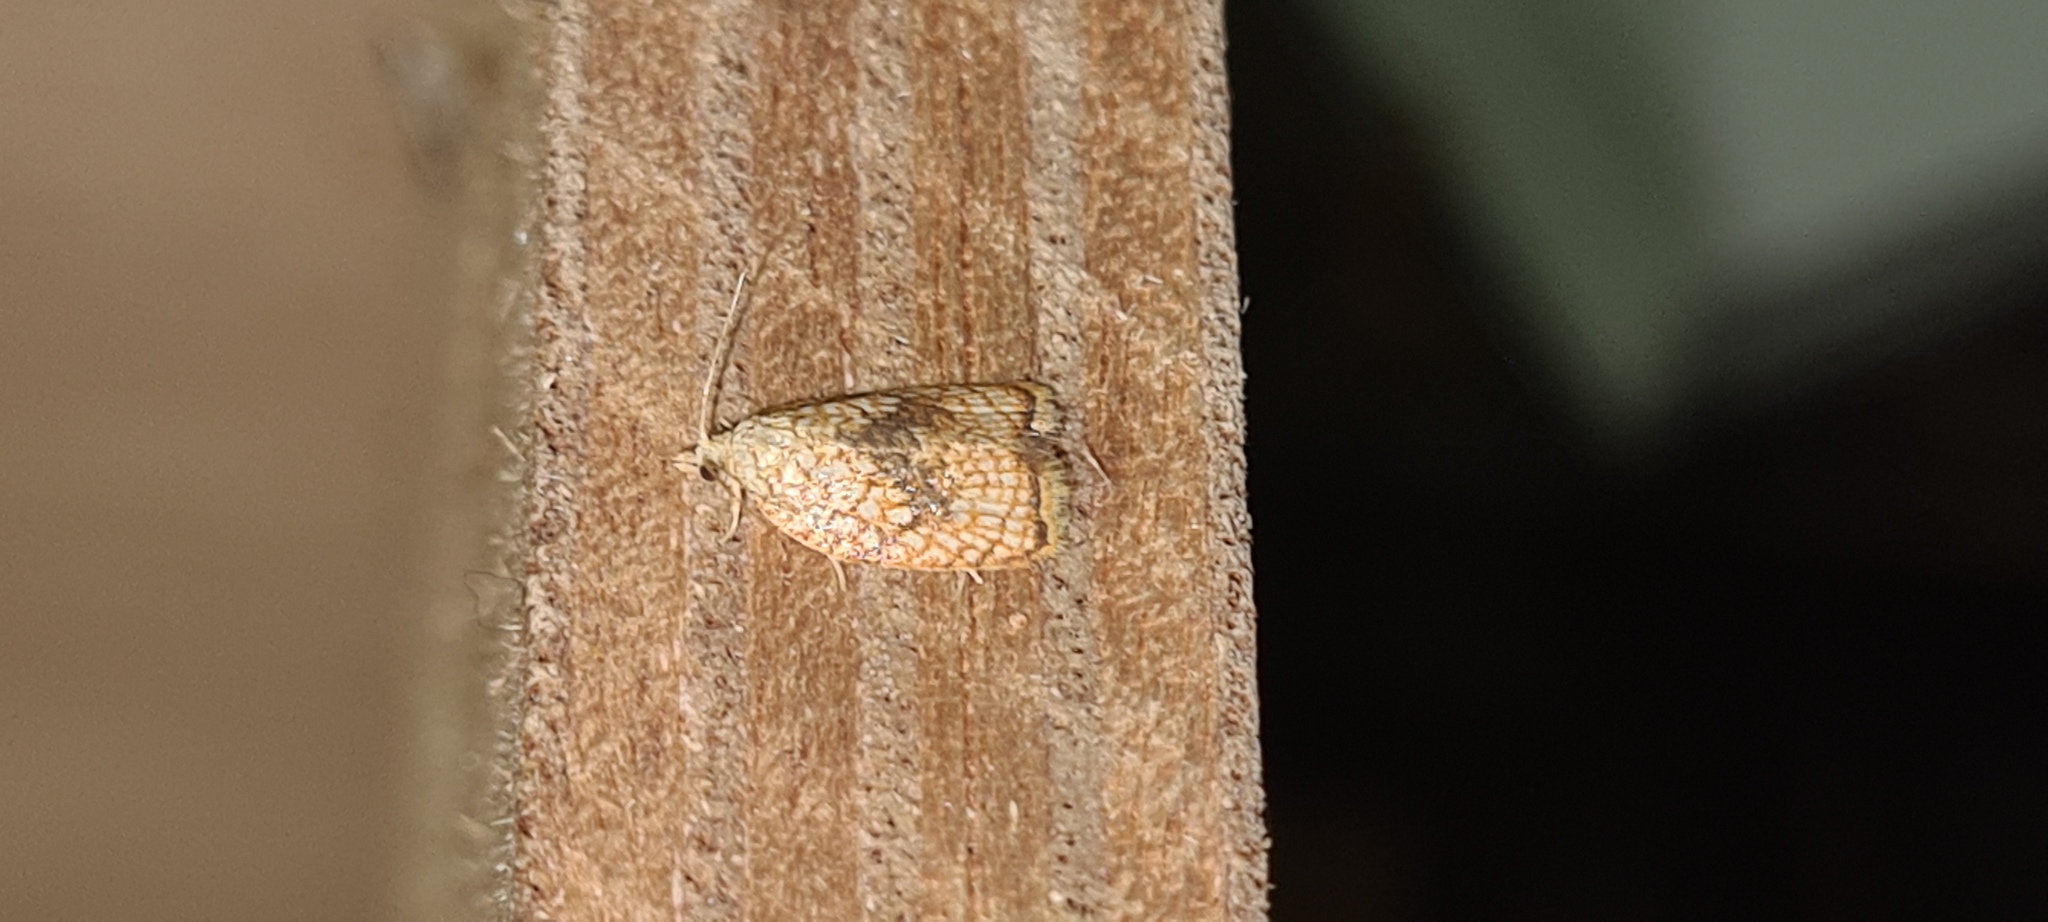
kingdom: Animalia
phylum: Arthropoda
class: Insecta
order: Lepidoptera
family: Tortricidae
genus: Acleris
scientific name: Acleris forsskaleana
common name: Maple button
